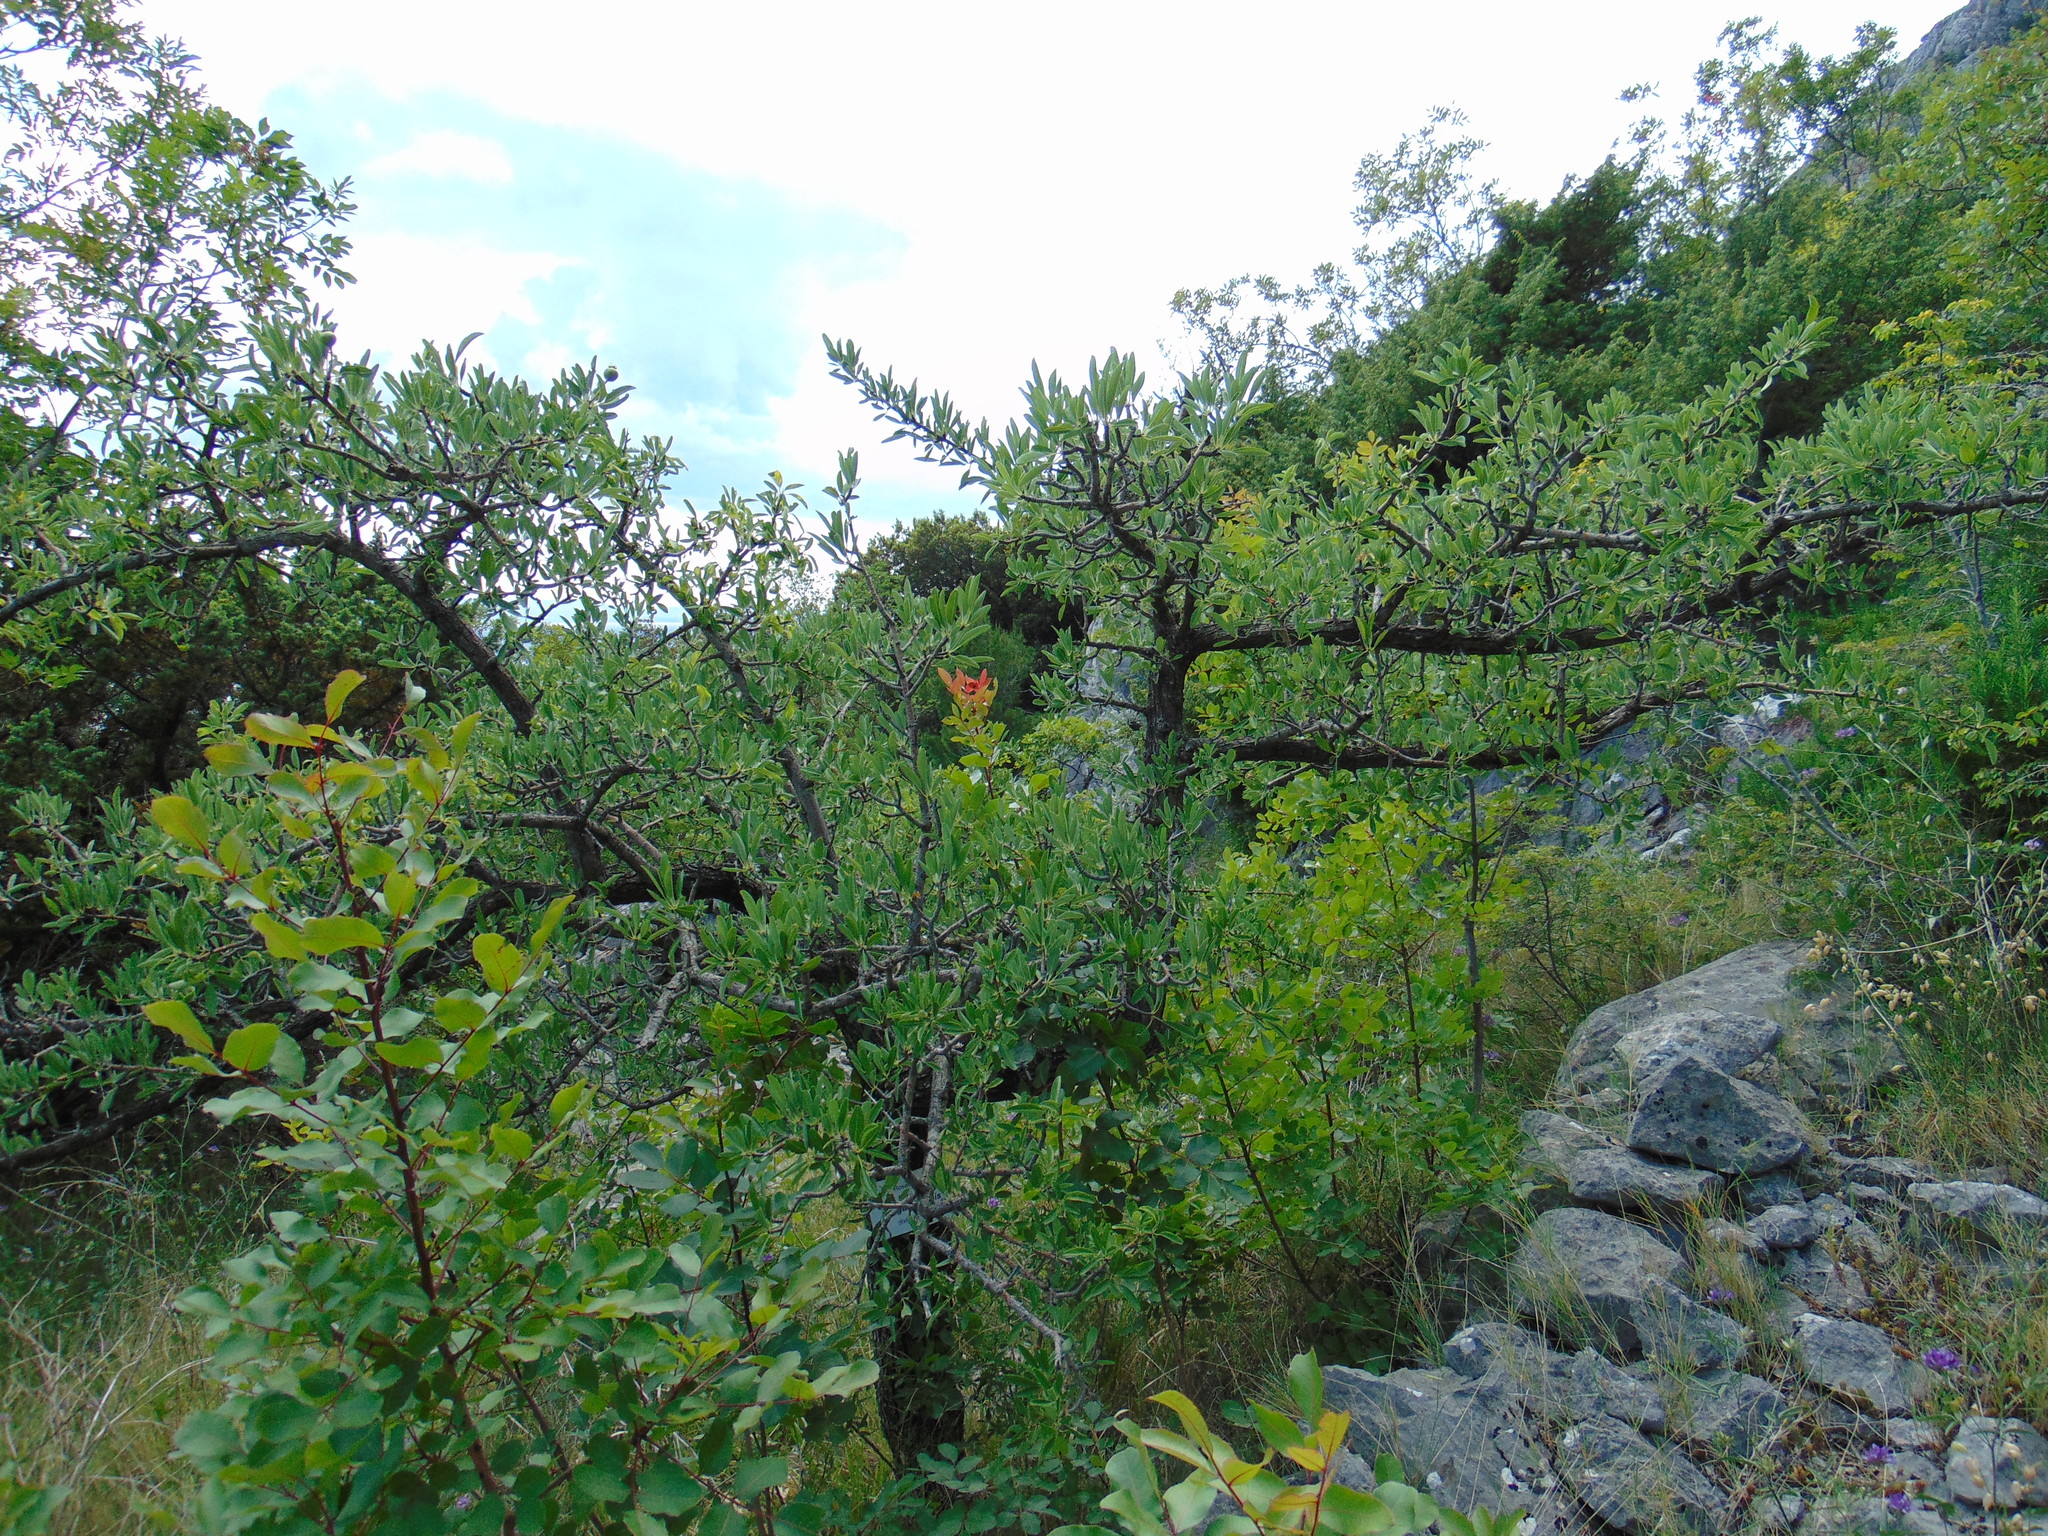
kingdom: Plantae
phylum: Tracheophyta
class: Magnoliopsida
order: Rosales
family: Rosaceae
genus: Pyrus
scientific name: Pyrus spinosa
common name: Almond-leaf pear
